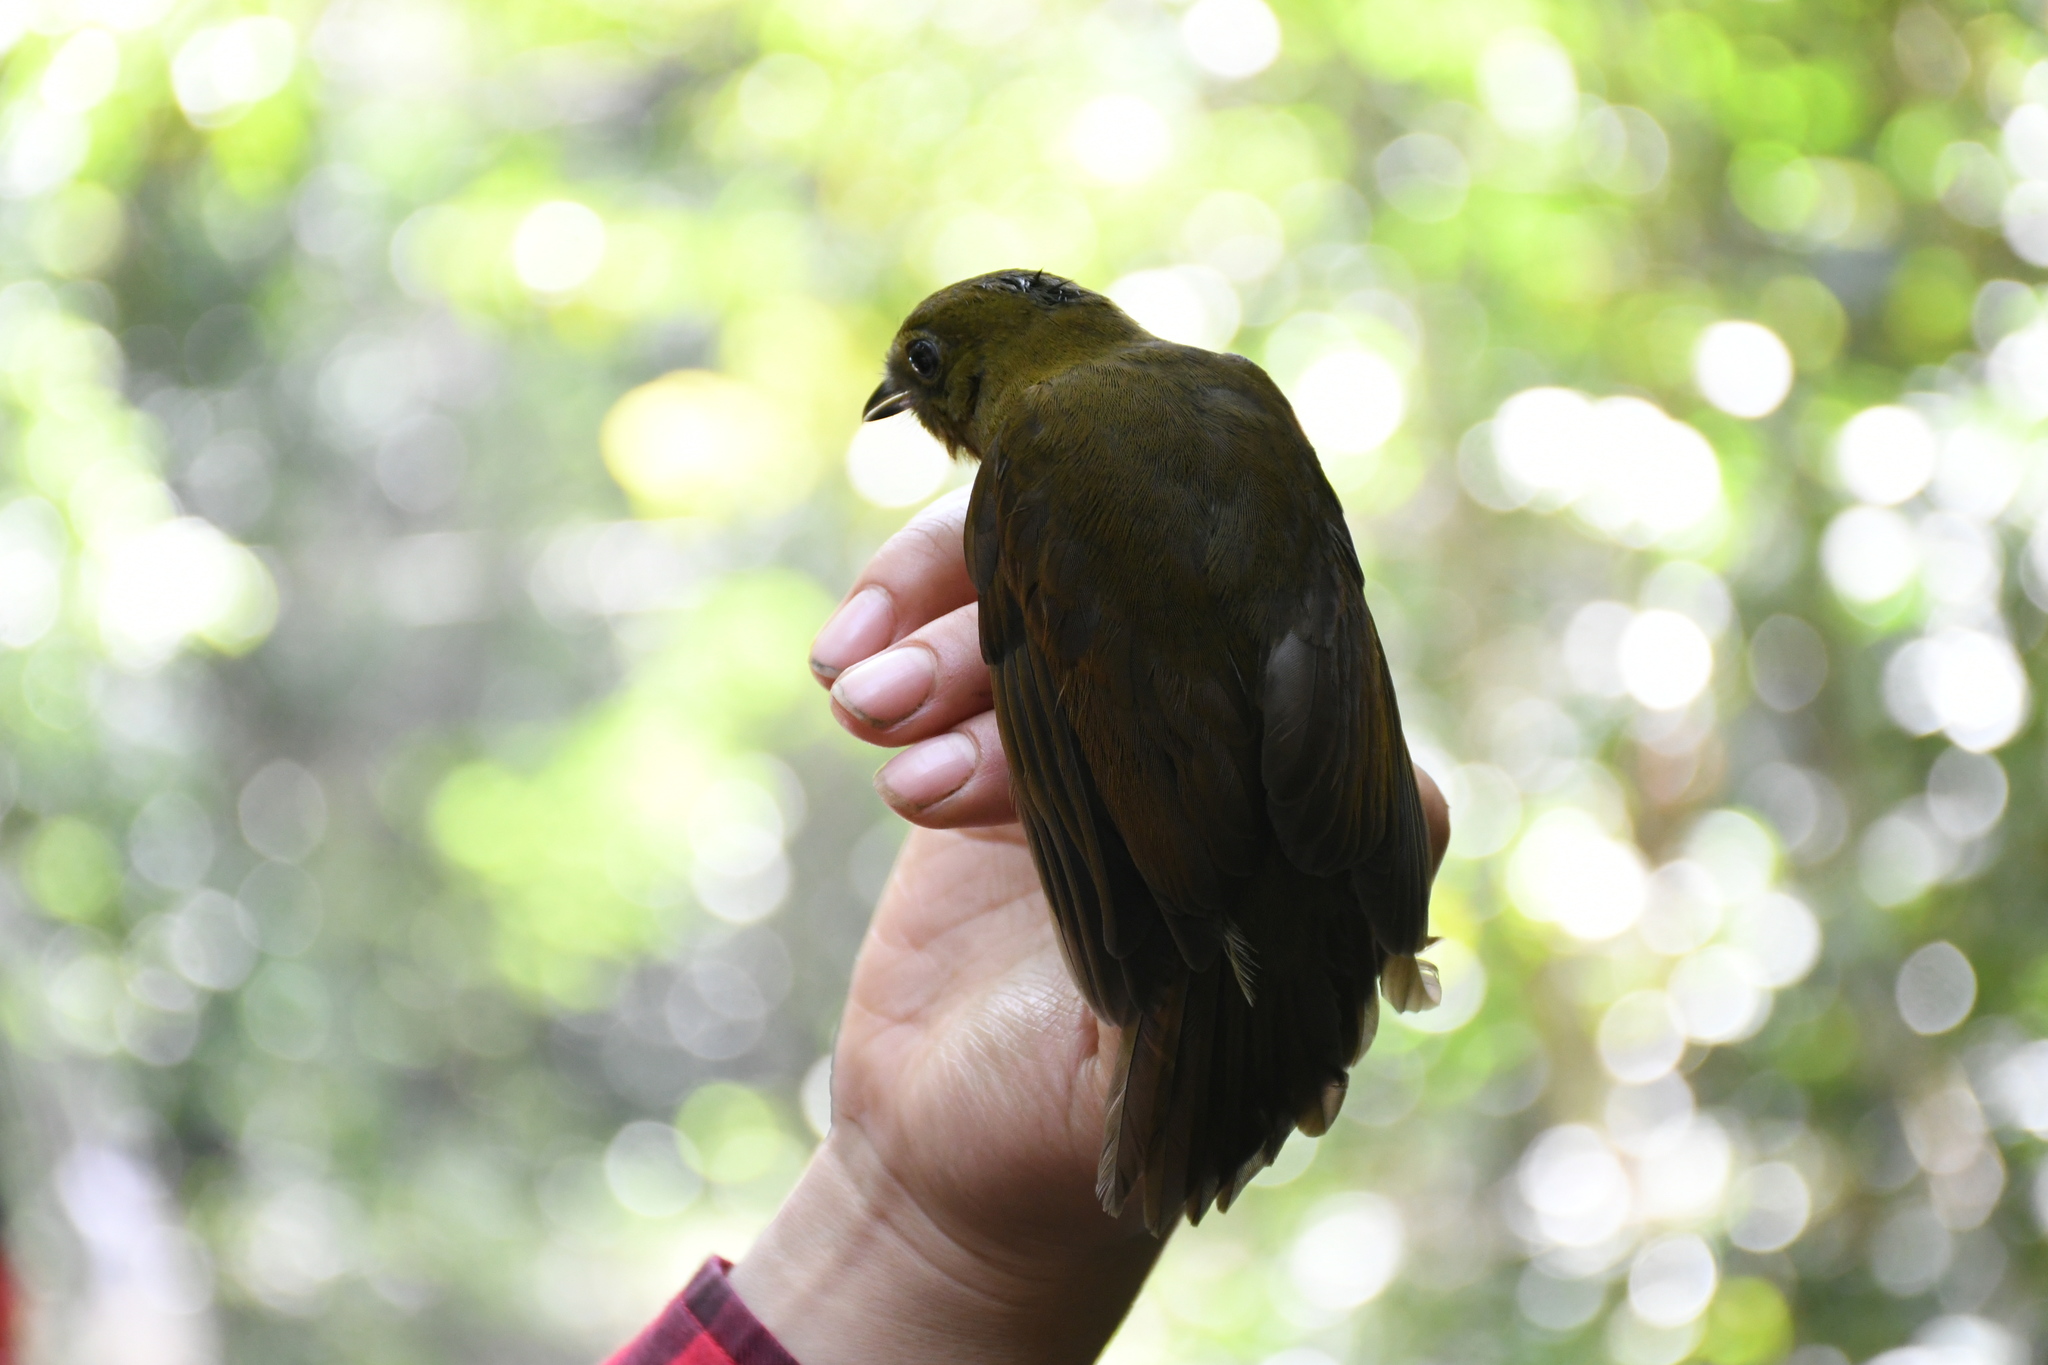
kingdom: Animalia
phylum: Chordata
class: Aves
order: Passeriformes
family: Cotingidae
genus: Schiffornis
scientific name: Schiffornis turdina
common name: Brown-winged schiffornis
